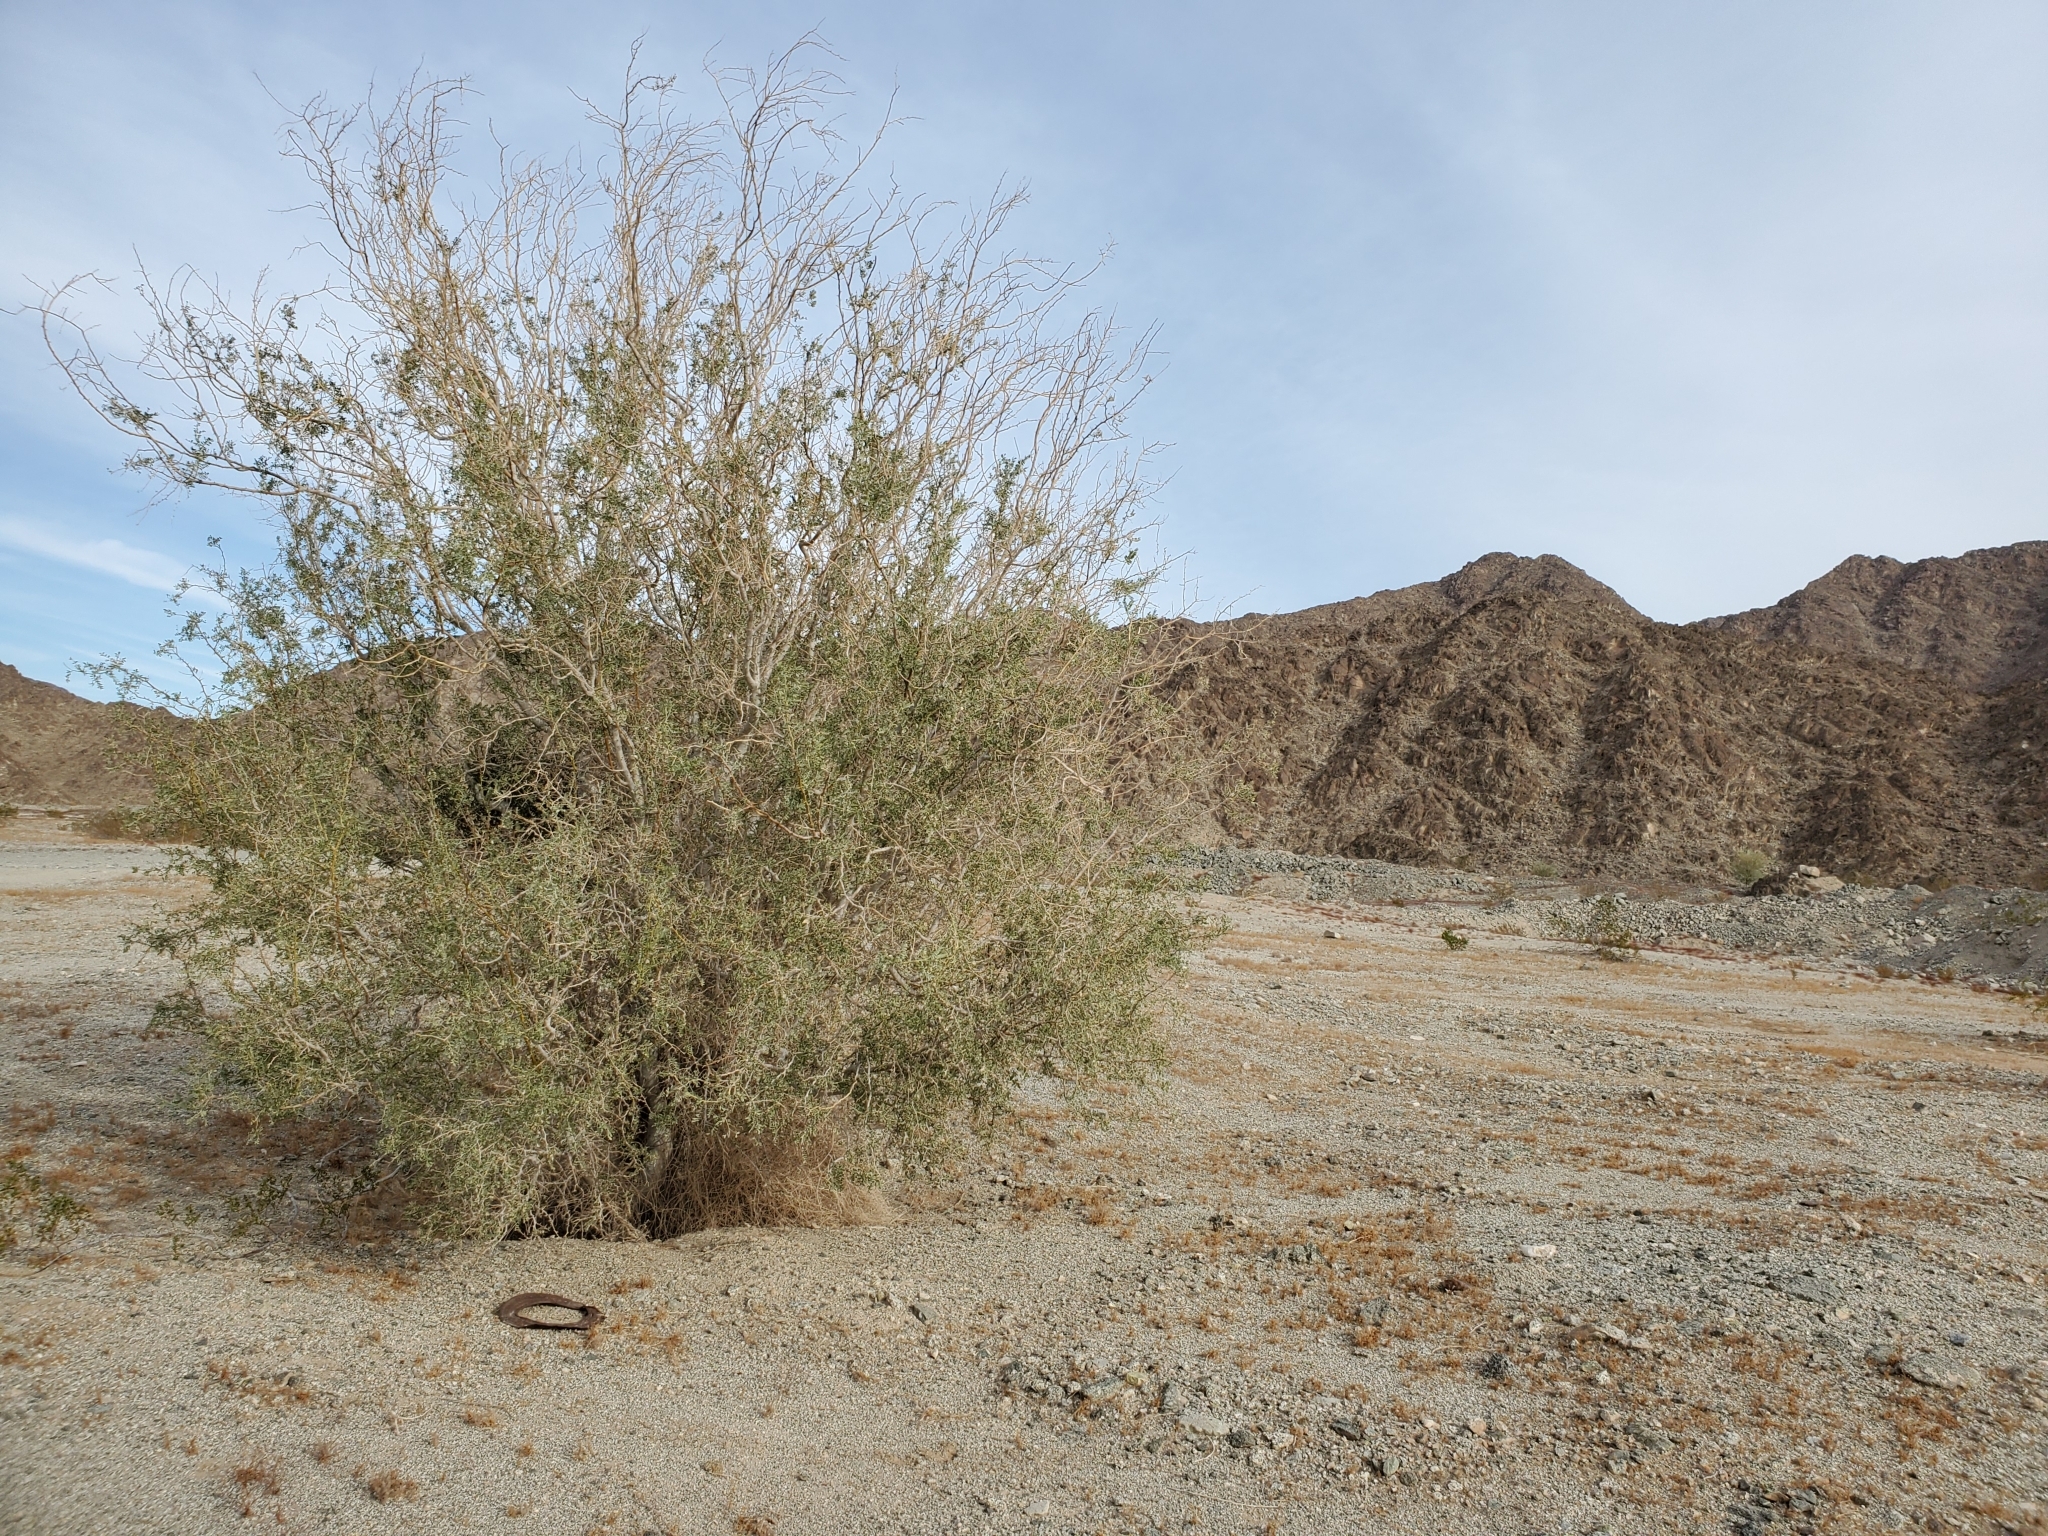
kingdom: Plantae
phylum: Tracheophyta
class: Magnoliopsida
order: Fabales
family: Fabaceae
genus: Olneya
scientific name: Olneya tesota
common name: Desert ironwood
